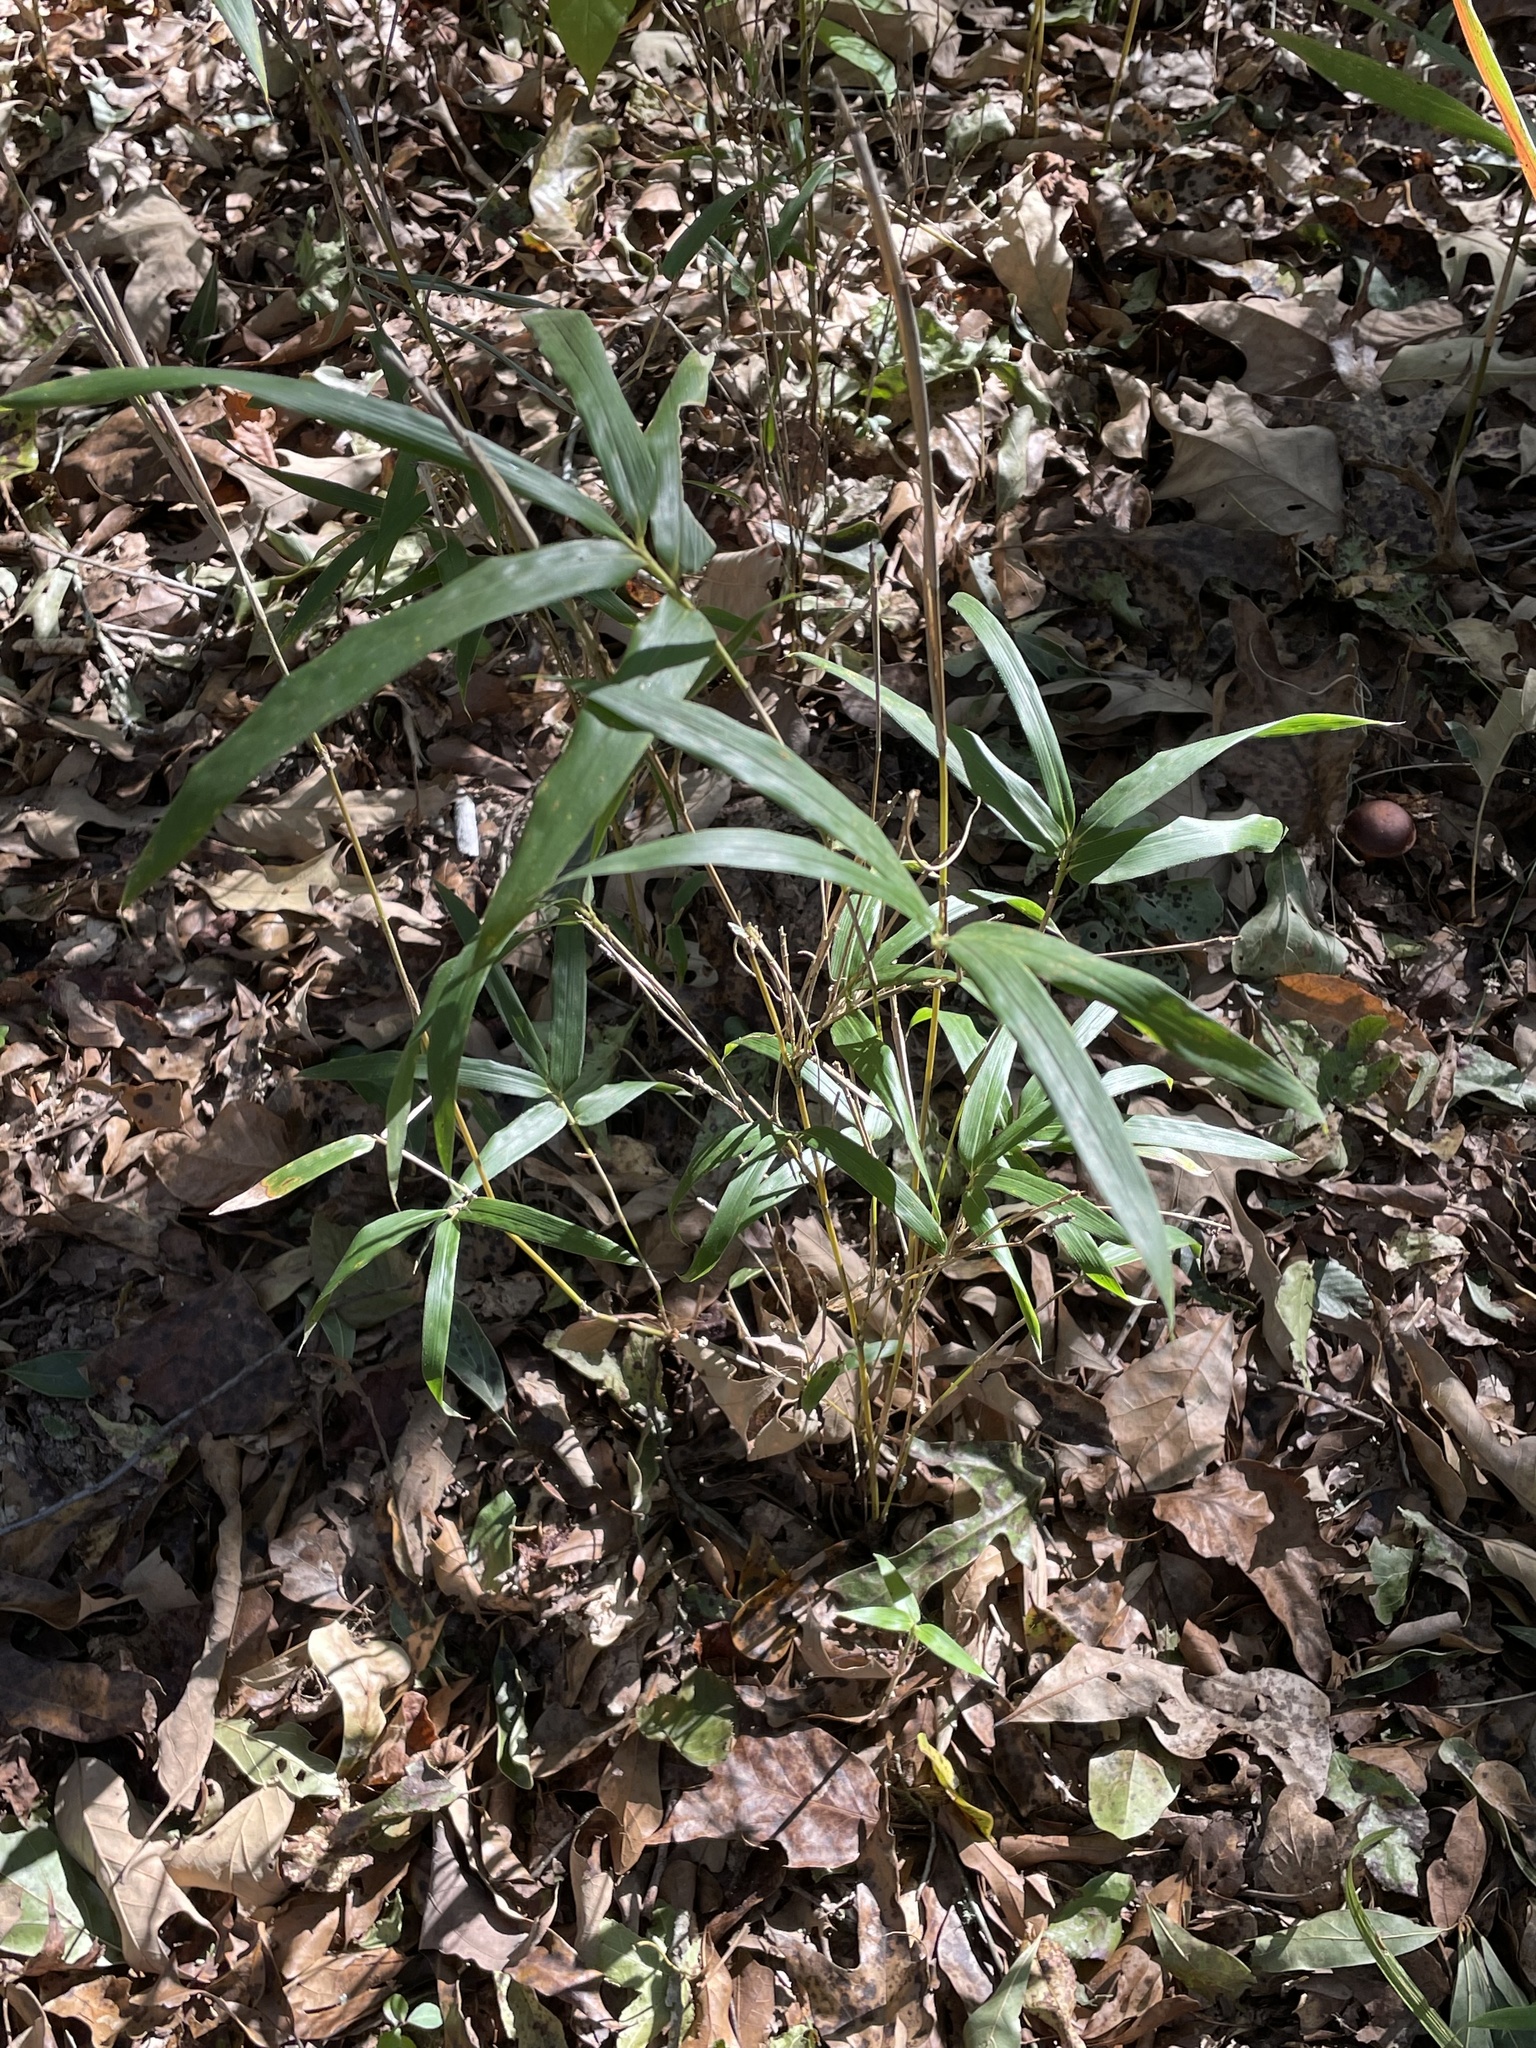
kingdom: Plantae
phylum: Tracheophyta
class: Liliopsida
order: Poales
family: Poaceae
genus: Arundinaria
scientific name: Arundinaria gigantea
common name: Giant cane
